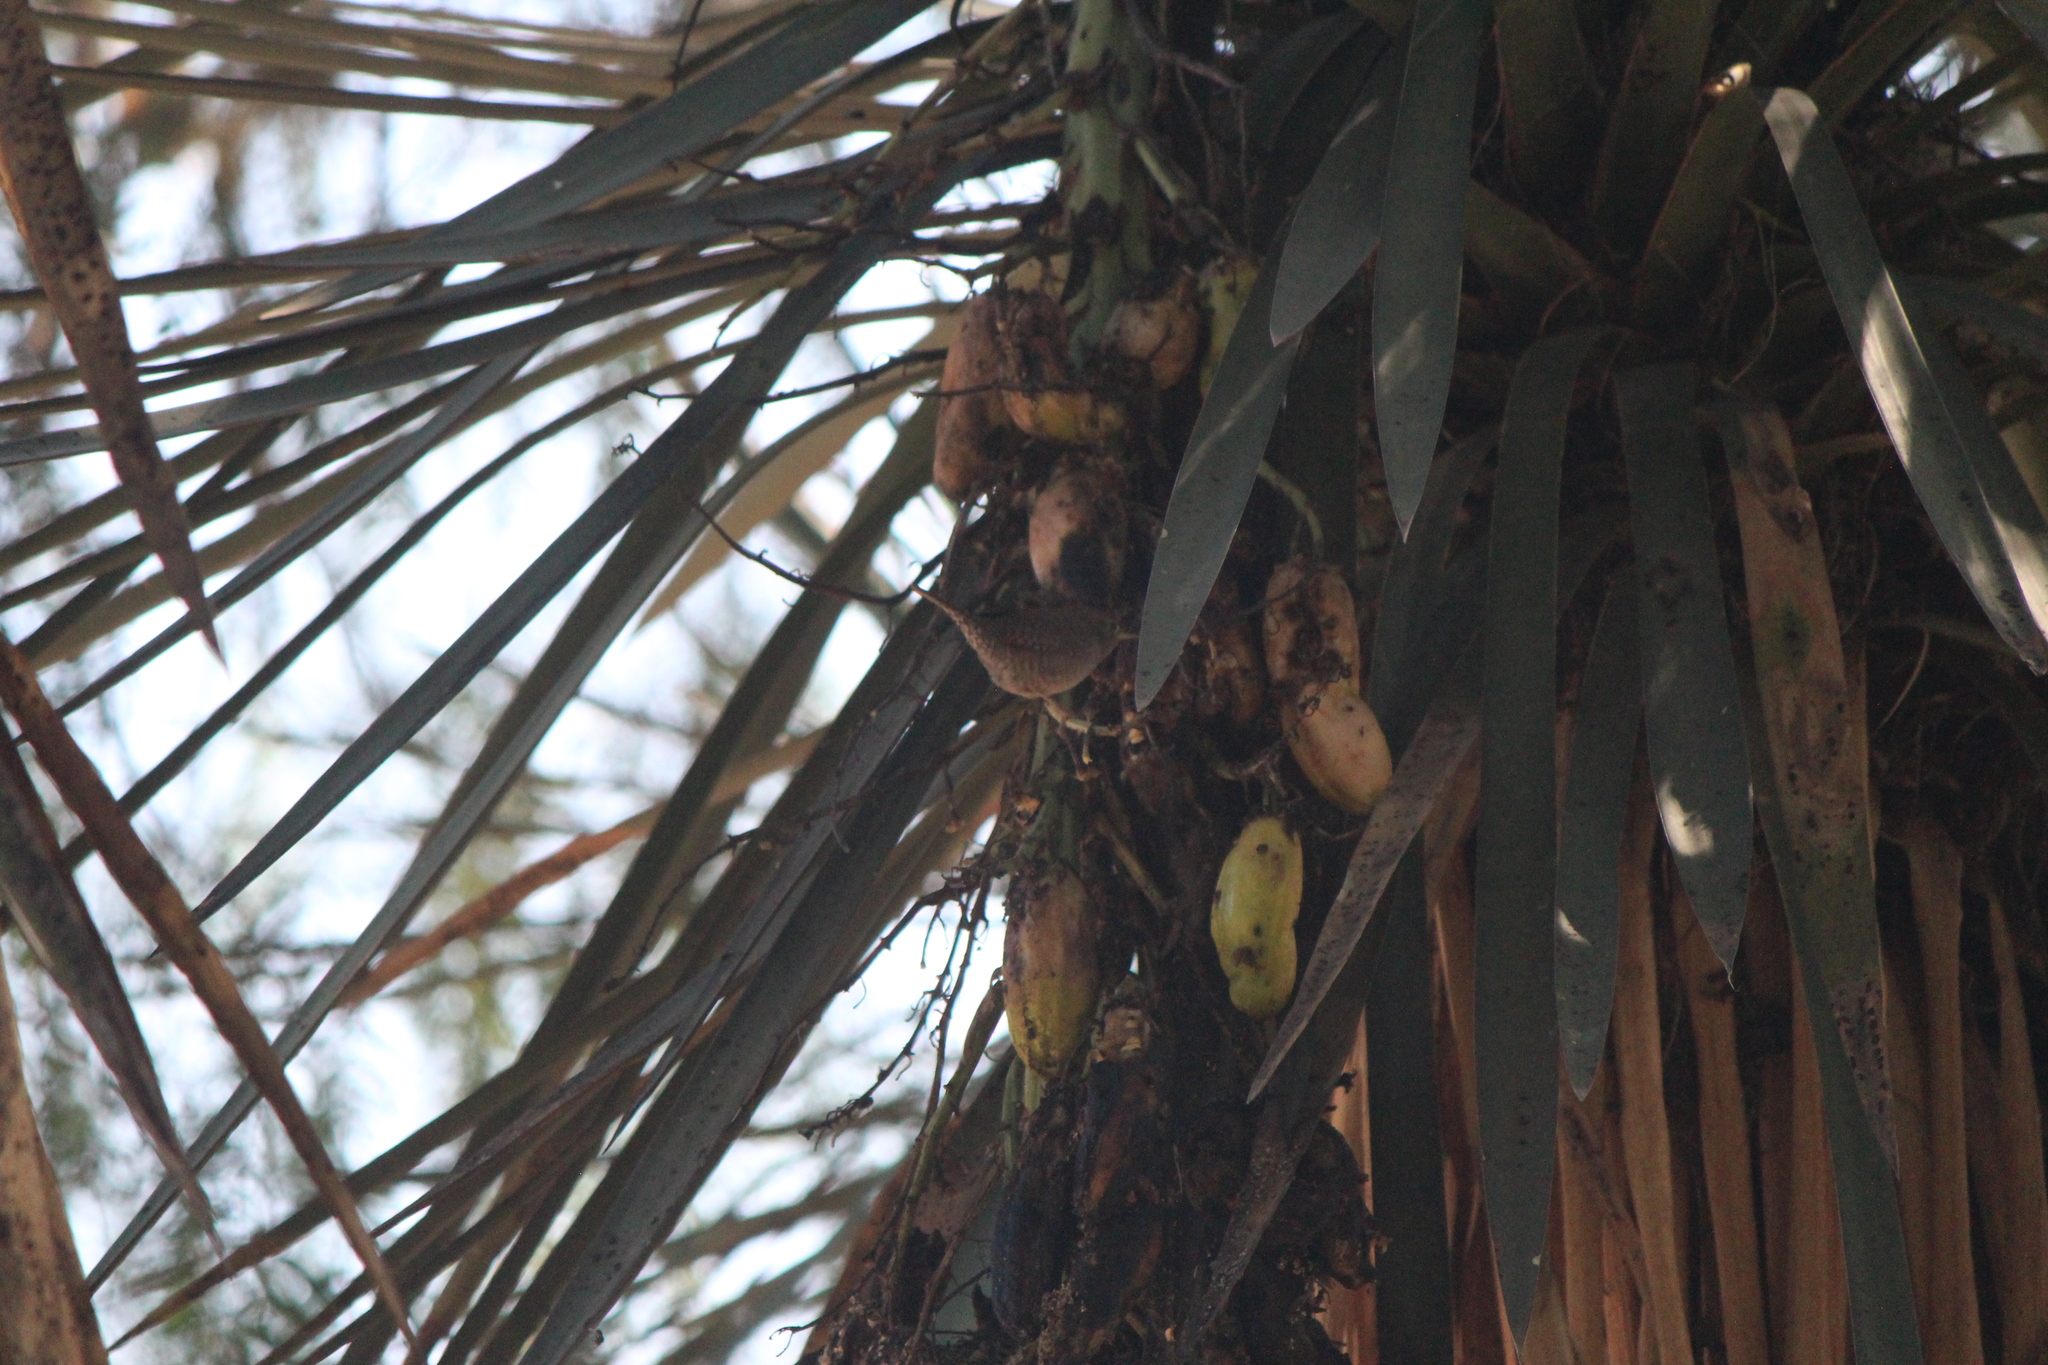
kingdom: Animalia
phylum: Chordata
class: Aves
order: Passeriformes
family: Troglodytidae
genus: Troglodytes
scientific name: Troglodytes aedon
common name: House wren
